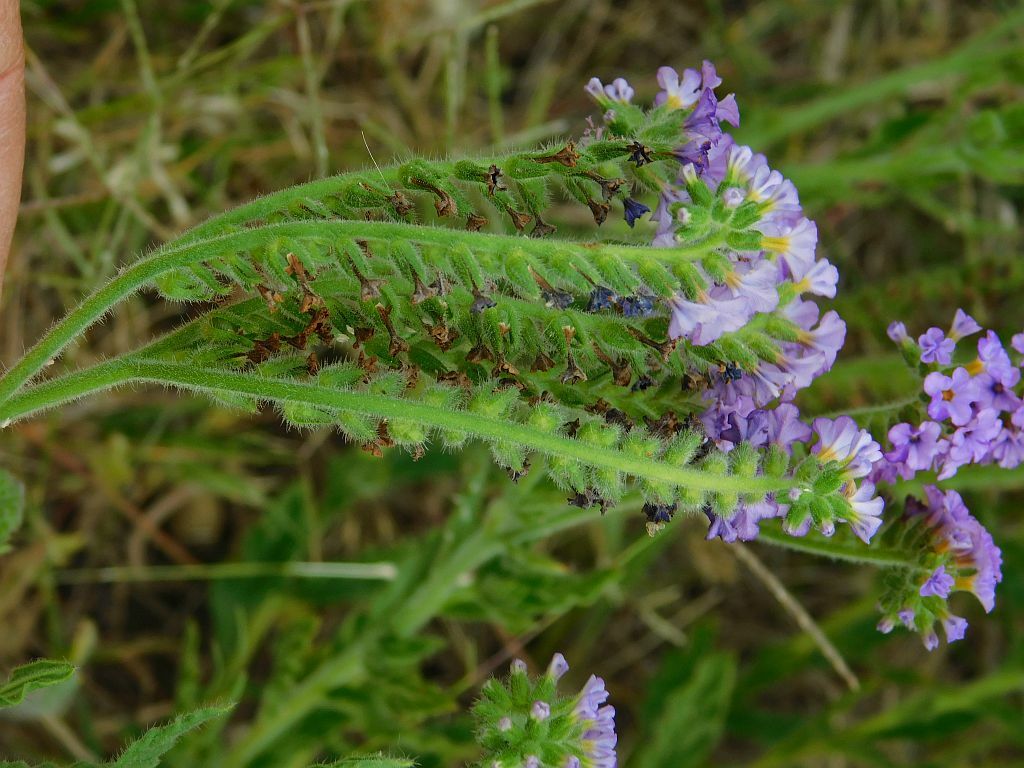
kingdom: Plantae
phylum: Tracheophyta
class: Magnoliopsida
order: Boraginales
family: Heliotropiaceae
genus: Heliotropium
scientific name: Heliotropium amplexicaule
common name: Clasping heliotrope
